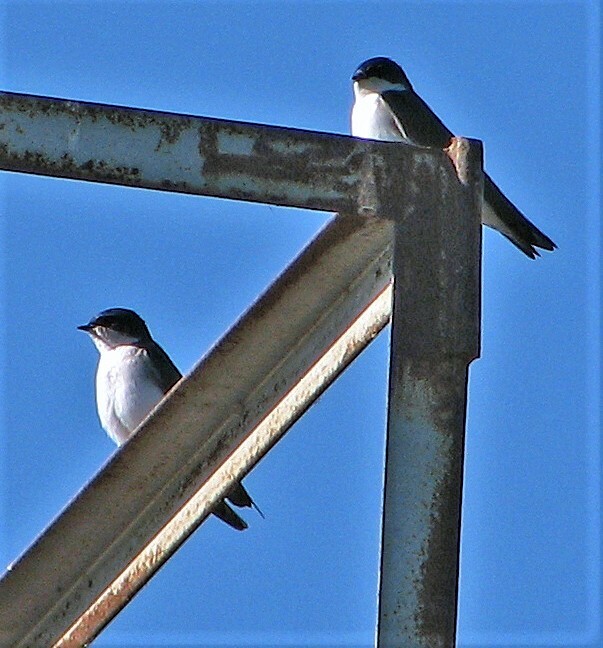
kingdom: Animalia
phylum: Chordata
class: Aves
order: Passeriformes
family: Hirundinidae
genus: Tachycineta
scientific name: Tachycineta leucopyga
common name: Chilean swallow
